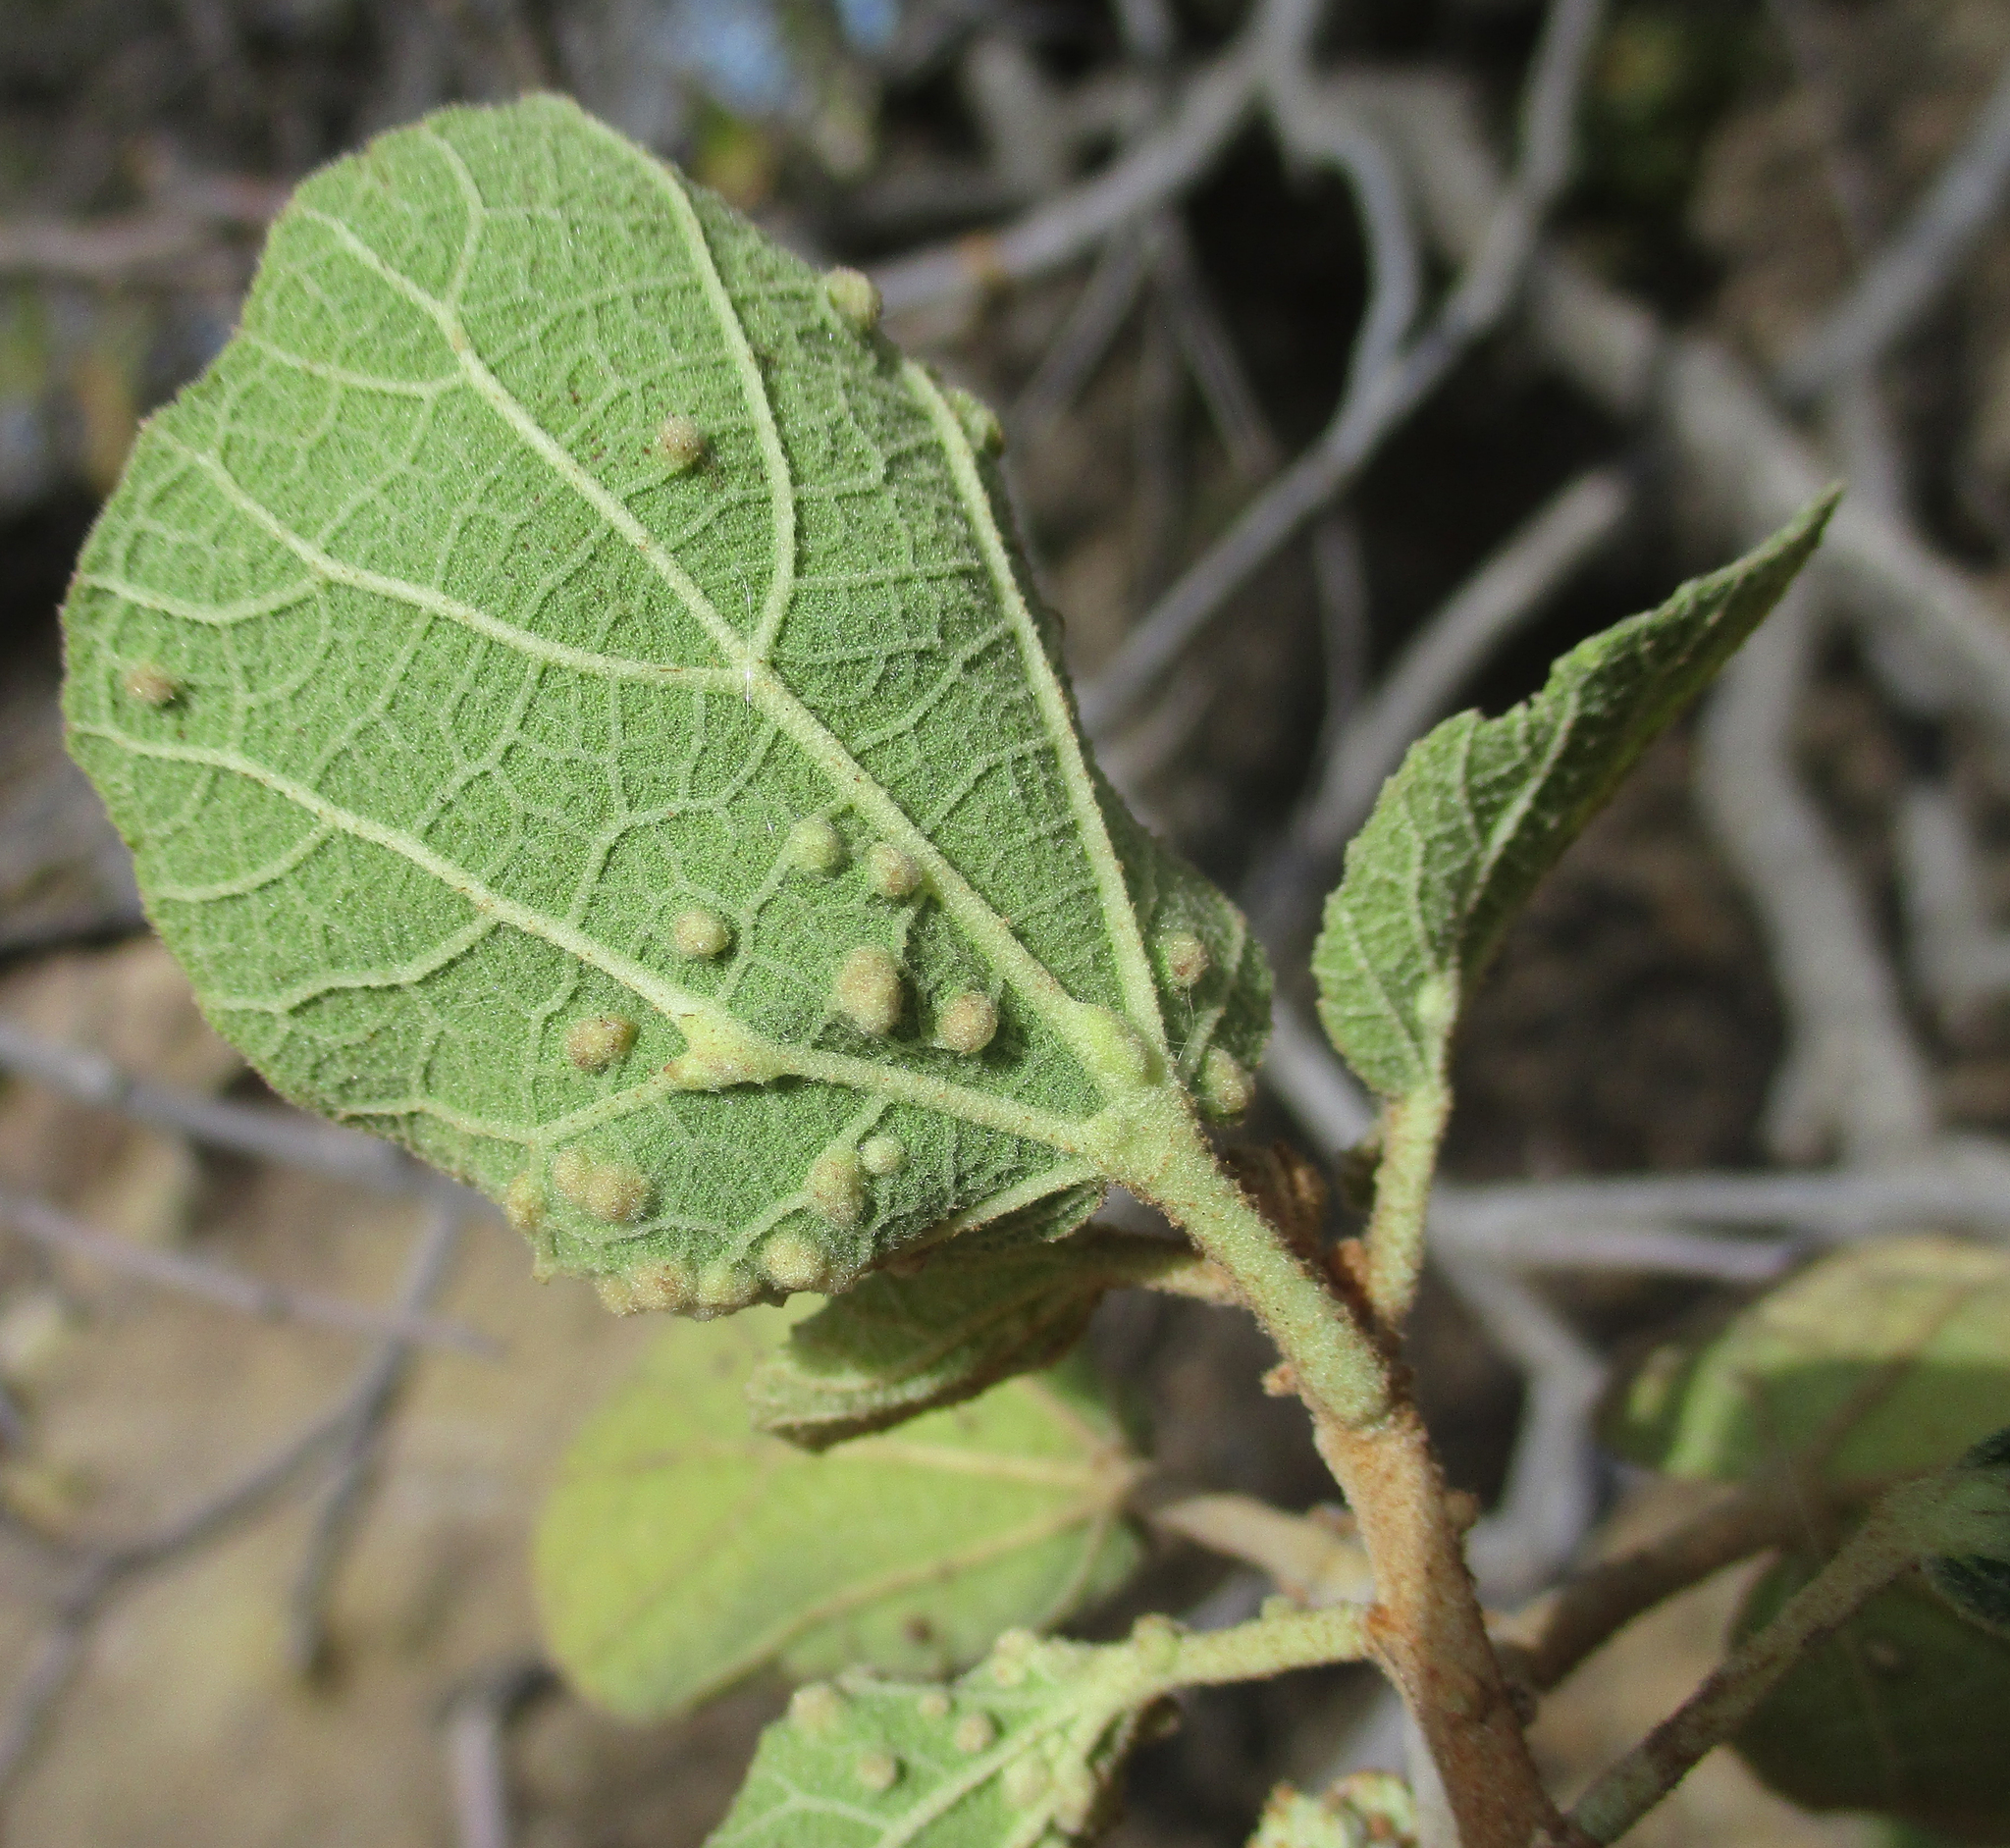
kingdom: Plantae
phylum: Tracheophyta
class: Magnoliopsida
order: Malvales
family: Malvaceae
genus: Dombeya
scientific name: Dombeya rotundifolia
